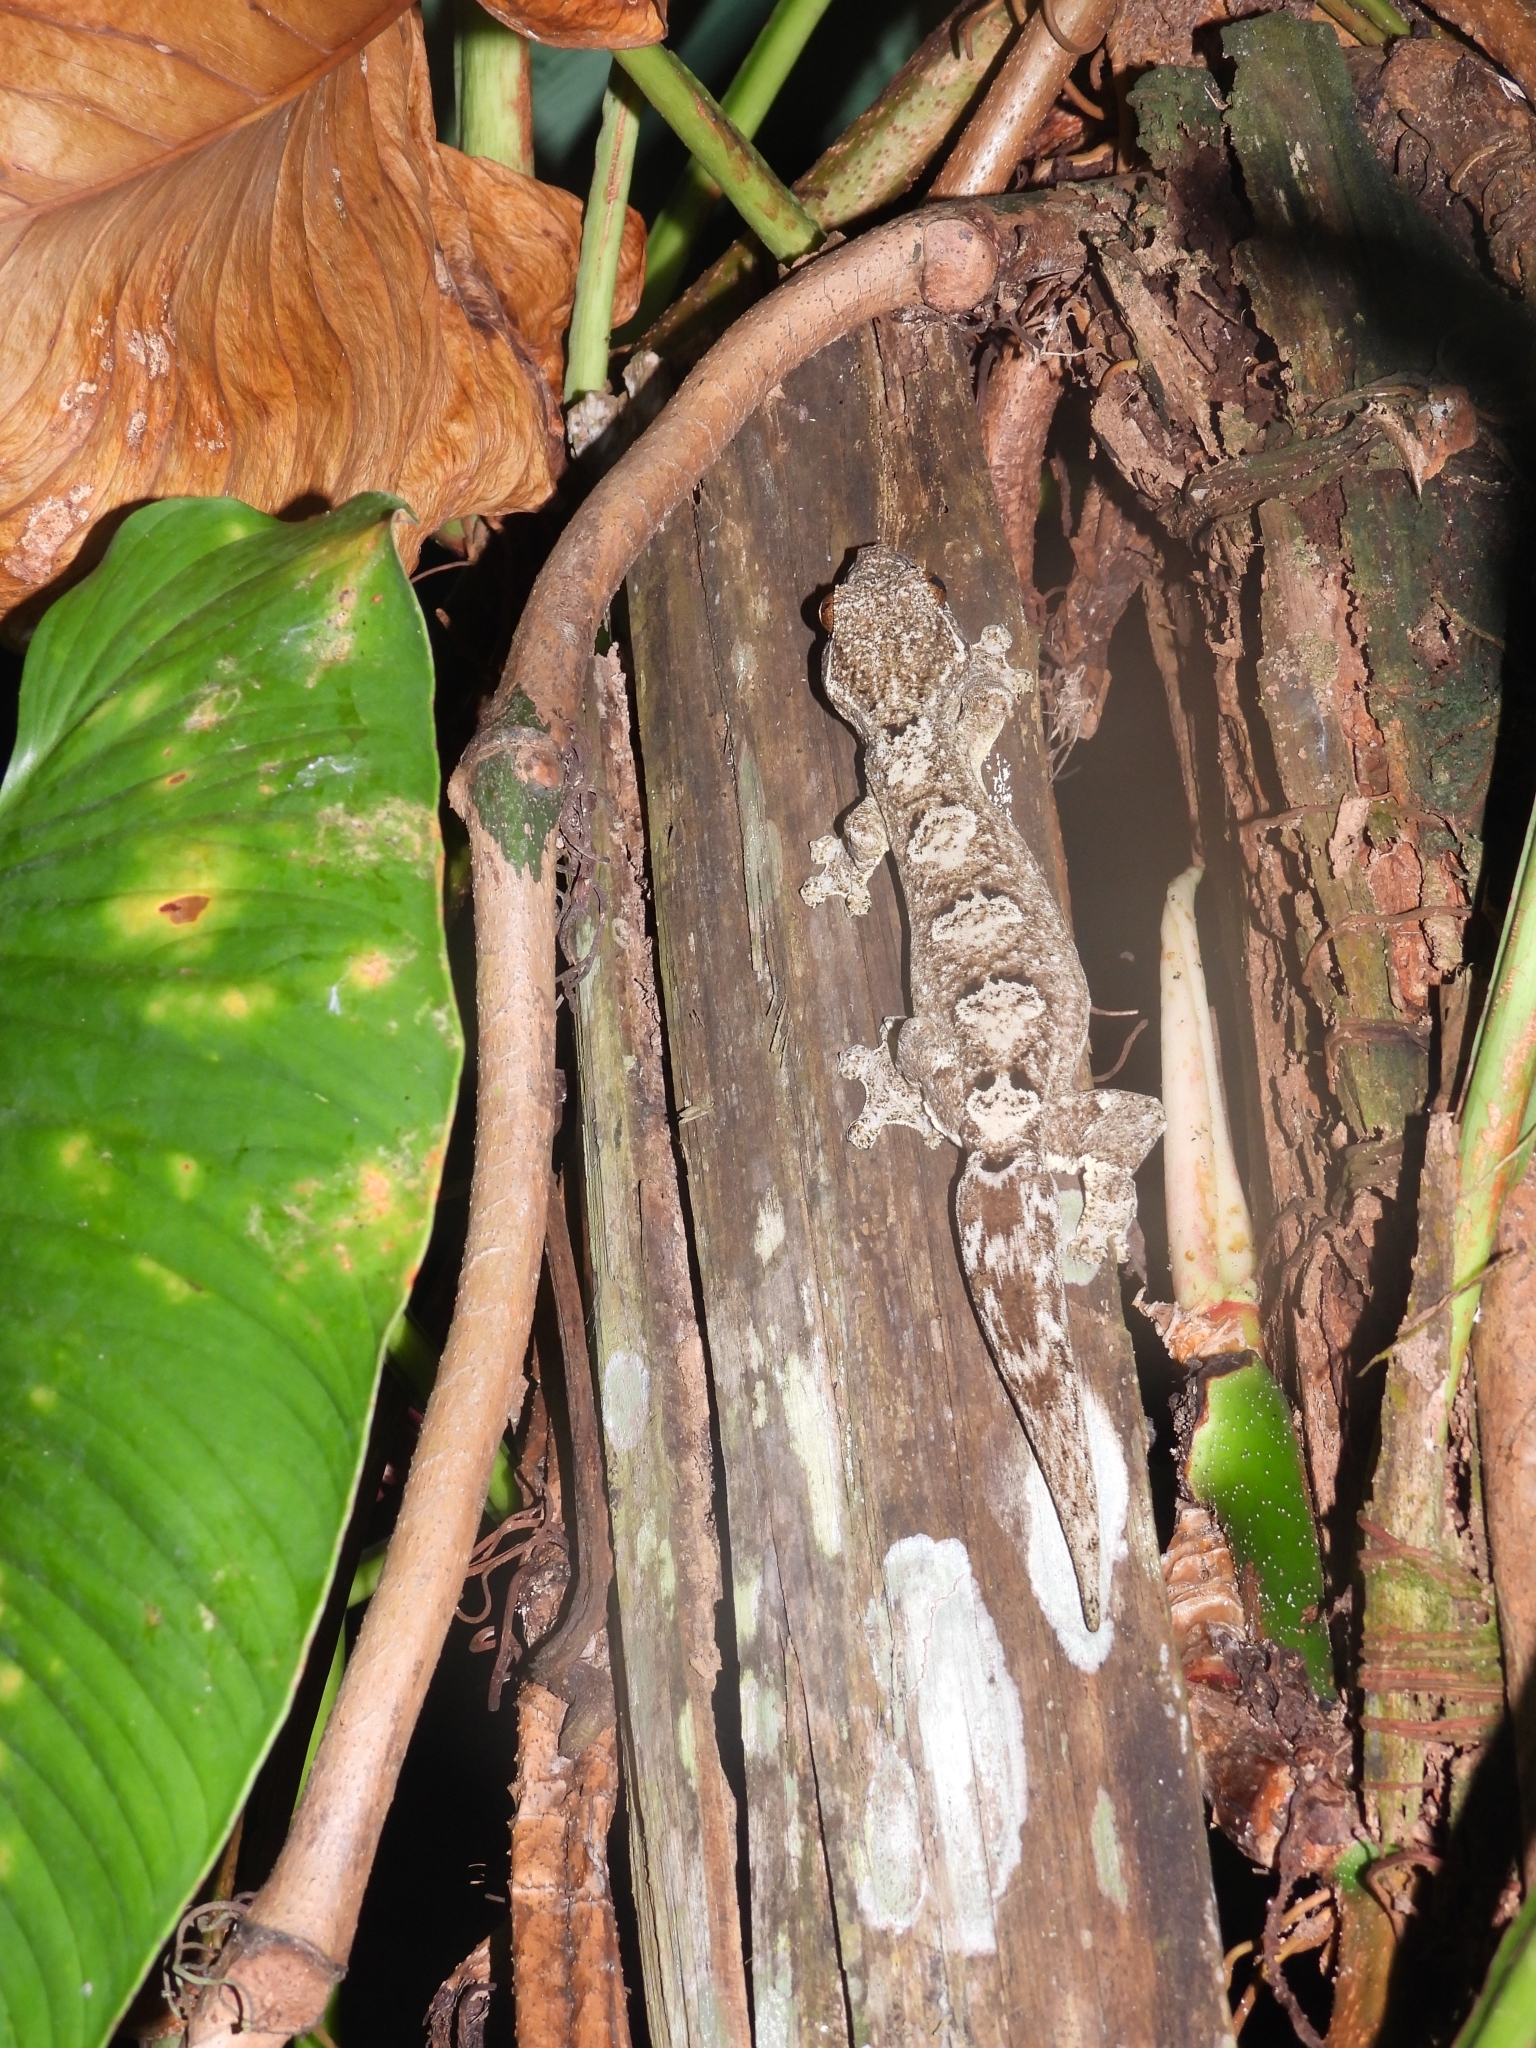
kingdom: Animalia
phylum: Chordata
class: Squamata
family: Phyllodactylidae
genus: Thecadactylus
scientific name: Thecadactylus solimoensis
